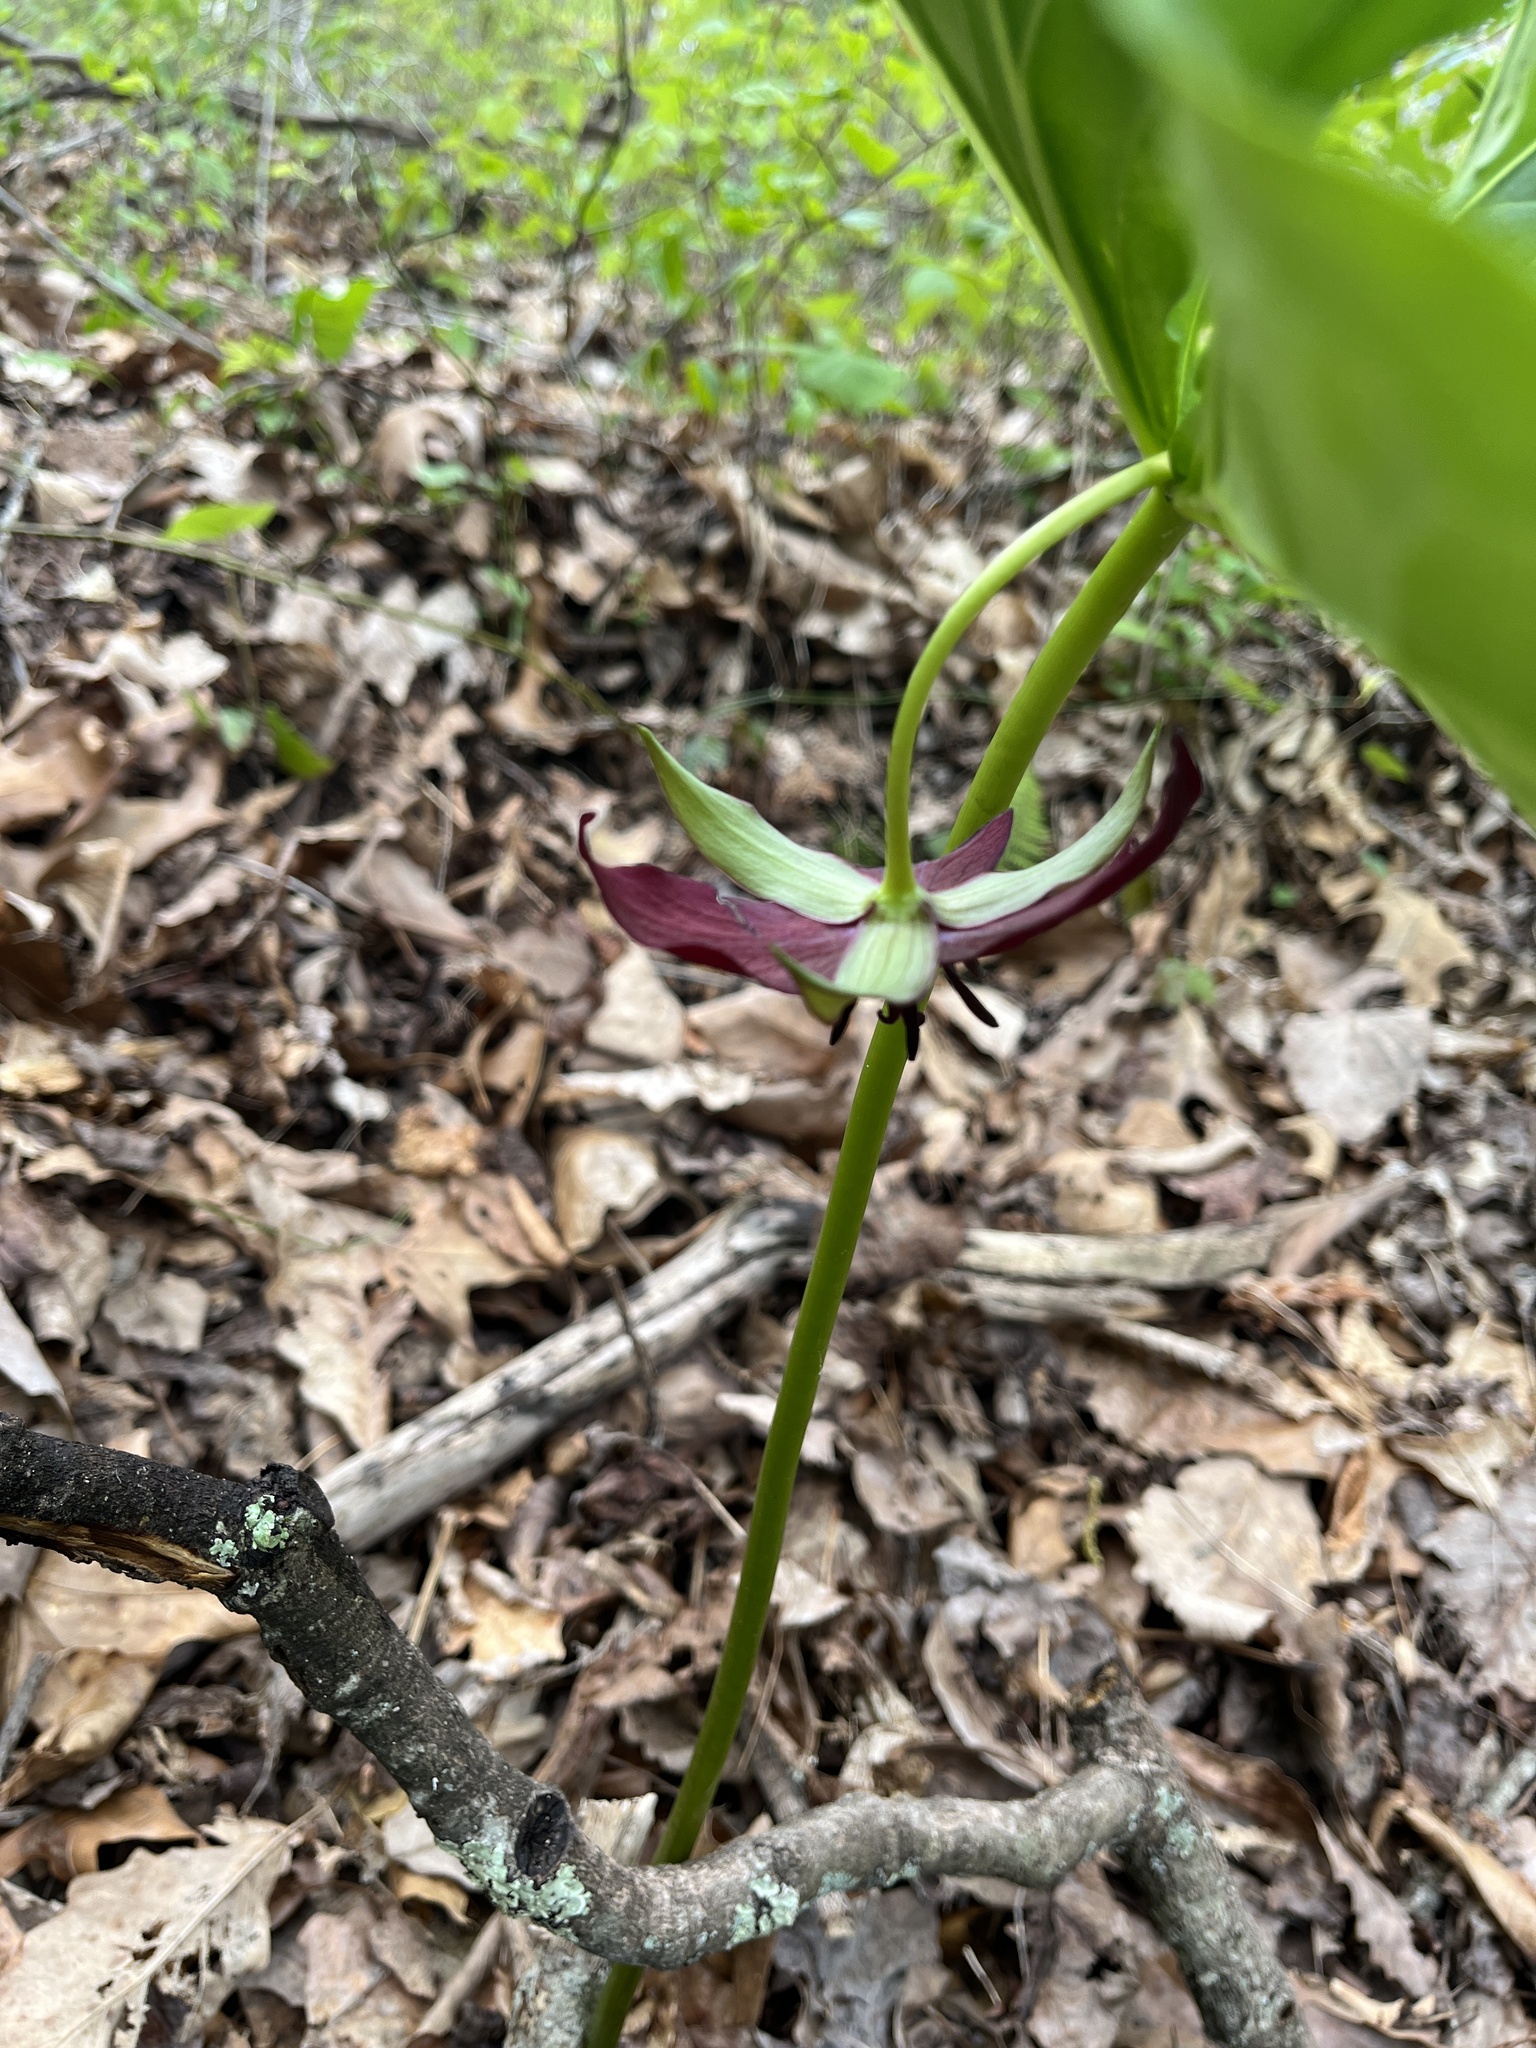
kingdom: Plantae
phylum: Tracheophyta
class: Liliopsida
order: Liliales
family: Melanthiaceae
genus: Trillium
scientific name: Trillium vaseyi
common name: Sweet trillium
